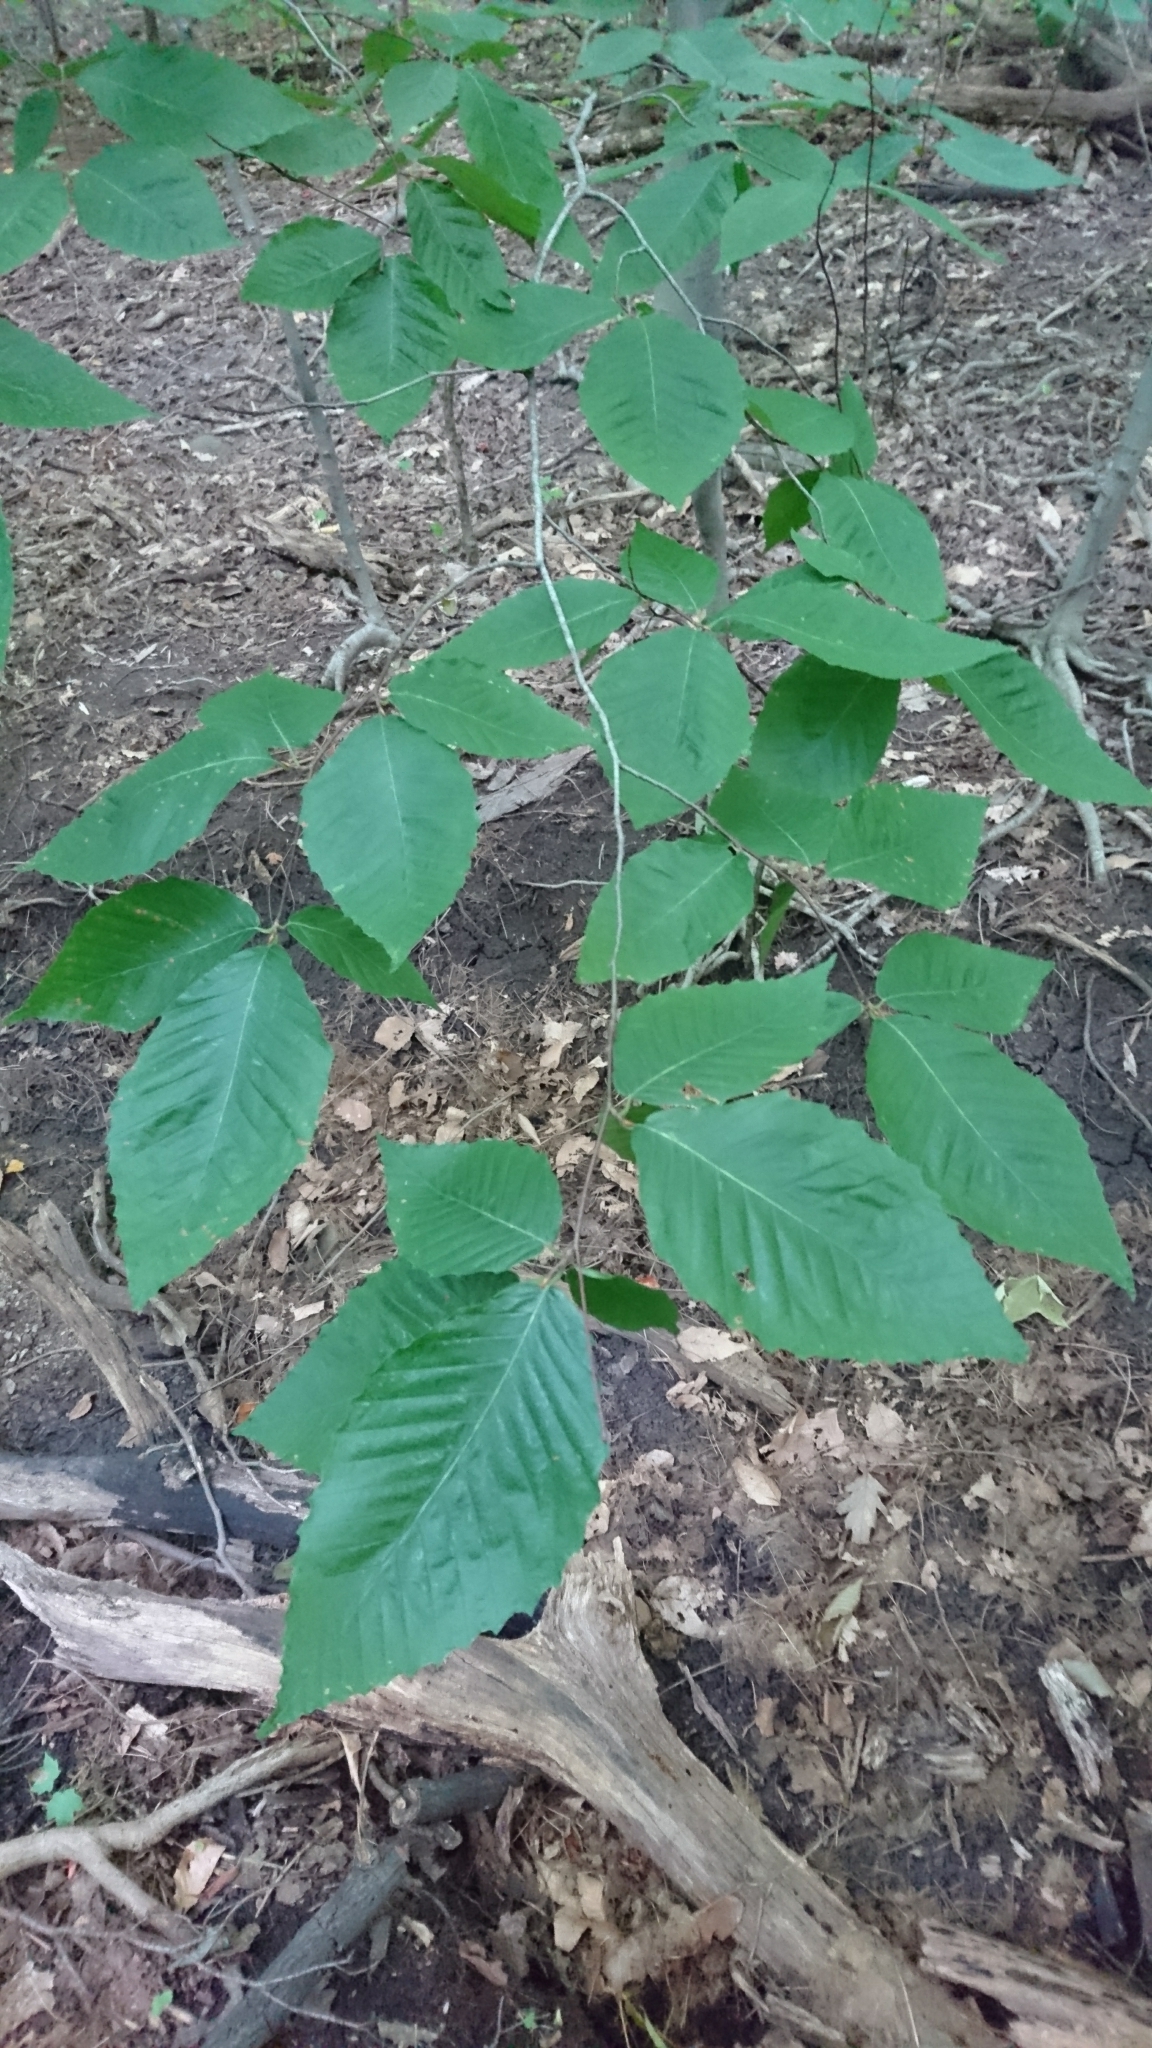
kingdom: Plantae
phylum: Tracheophyta
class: Magnoliopsida
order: Fagales
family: Fagaceae
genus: Fagus
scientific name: Fagus grandifolia
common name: American beech
